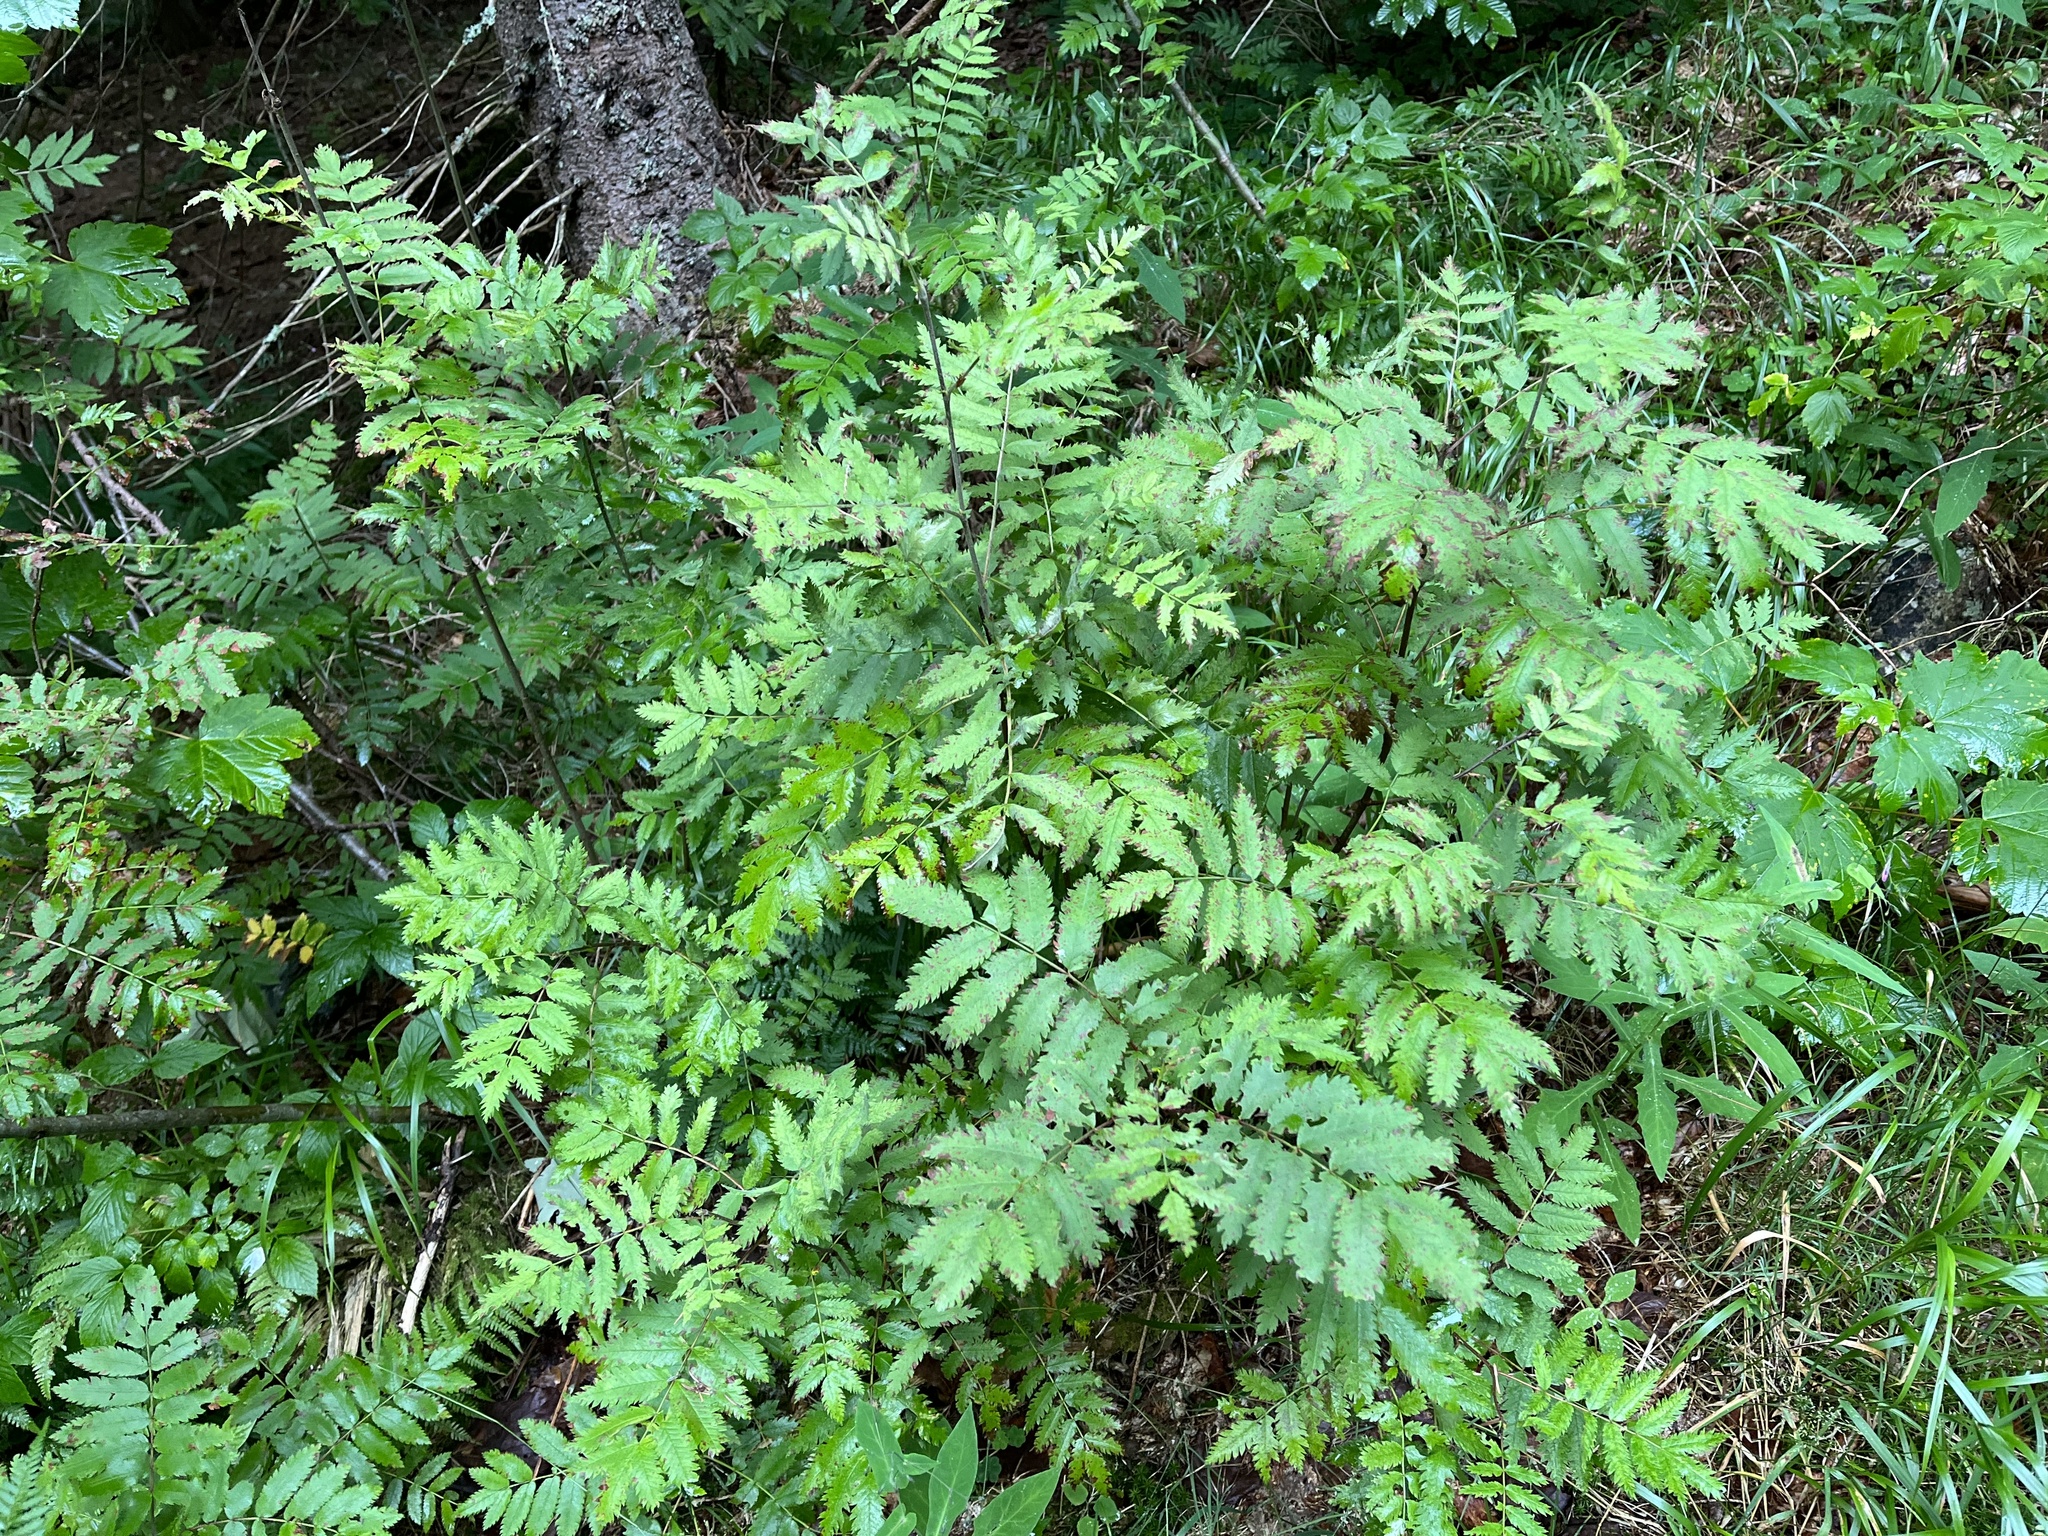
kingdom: Plantae
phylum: Tracheophyta
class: Magnoliopsida
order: Rosales
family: Rosaceae
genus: Sorbus
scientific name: Sorbus aucuparia
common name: Rowan
